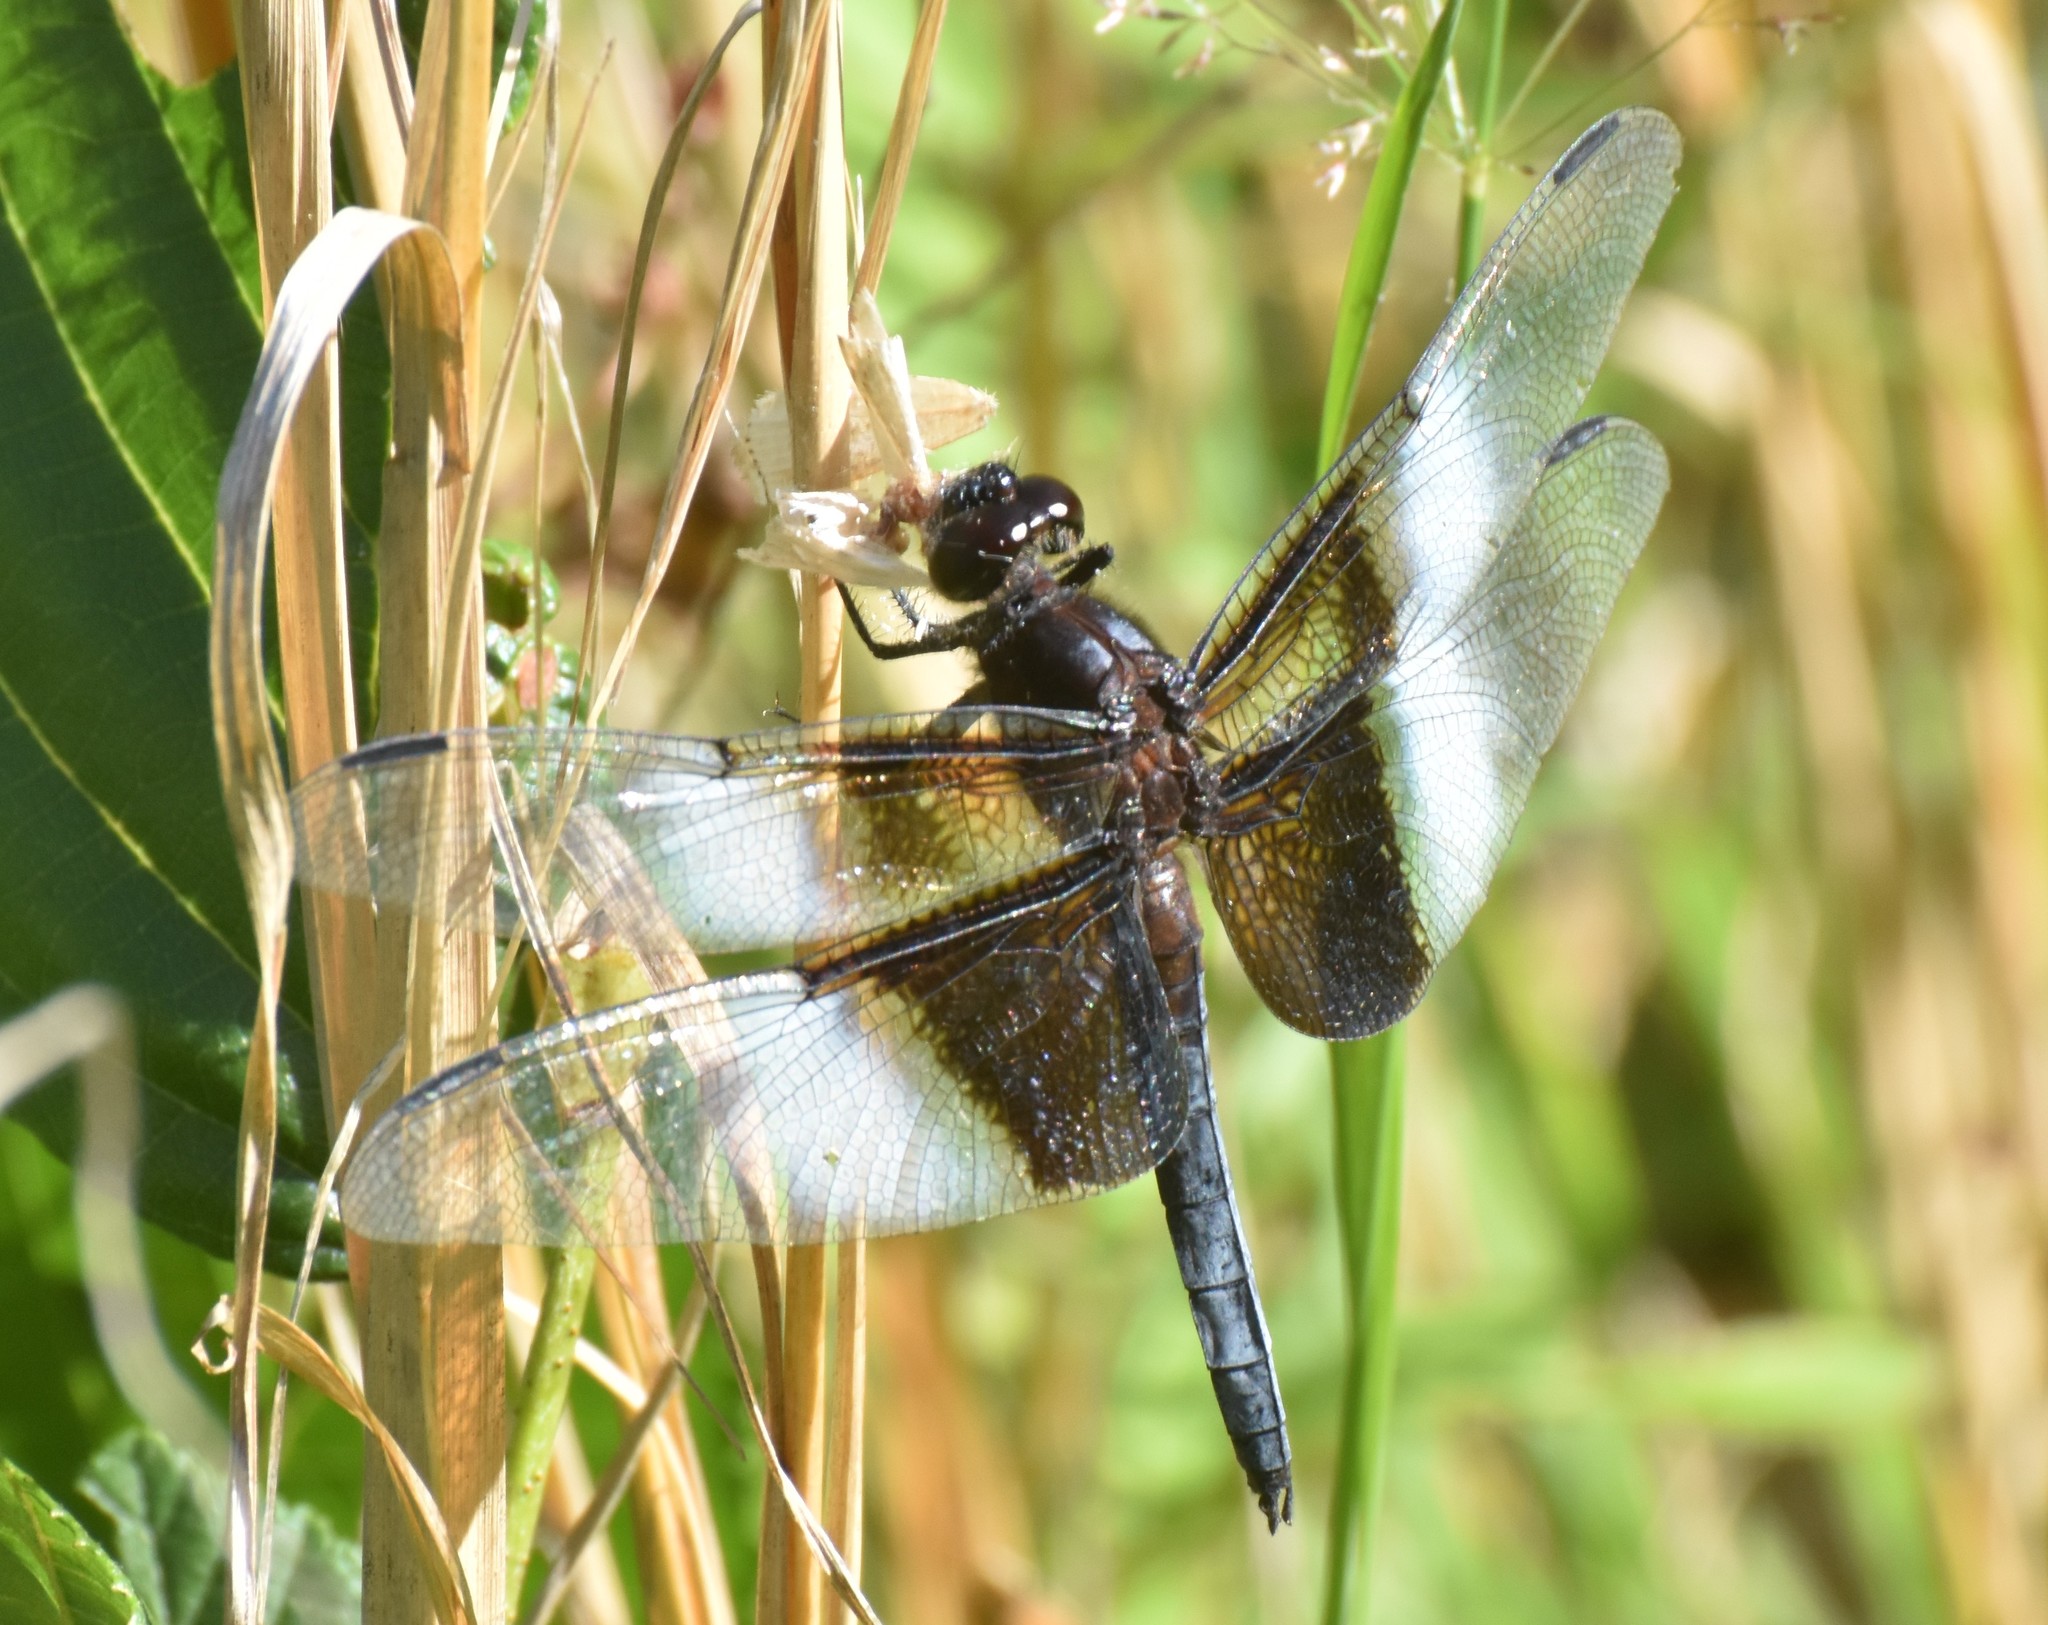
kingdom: Animalia
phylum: Arthropoda
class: Insecta
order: Odonata
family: Libellulidae
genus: Libellula
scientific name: Libellula luctuosa
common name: Widow skimmer
